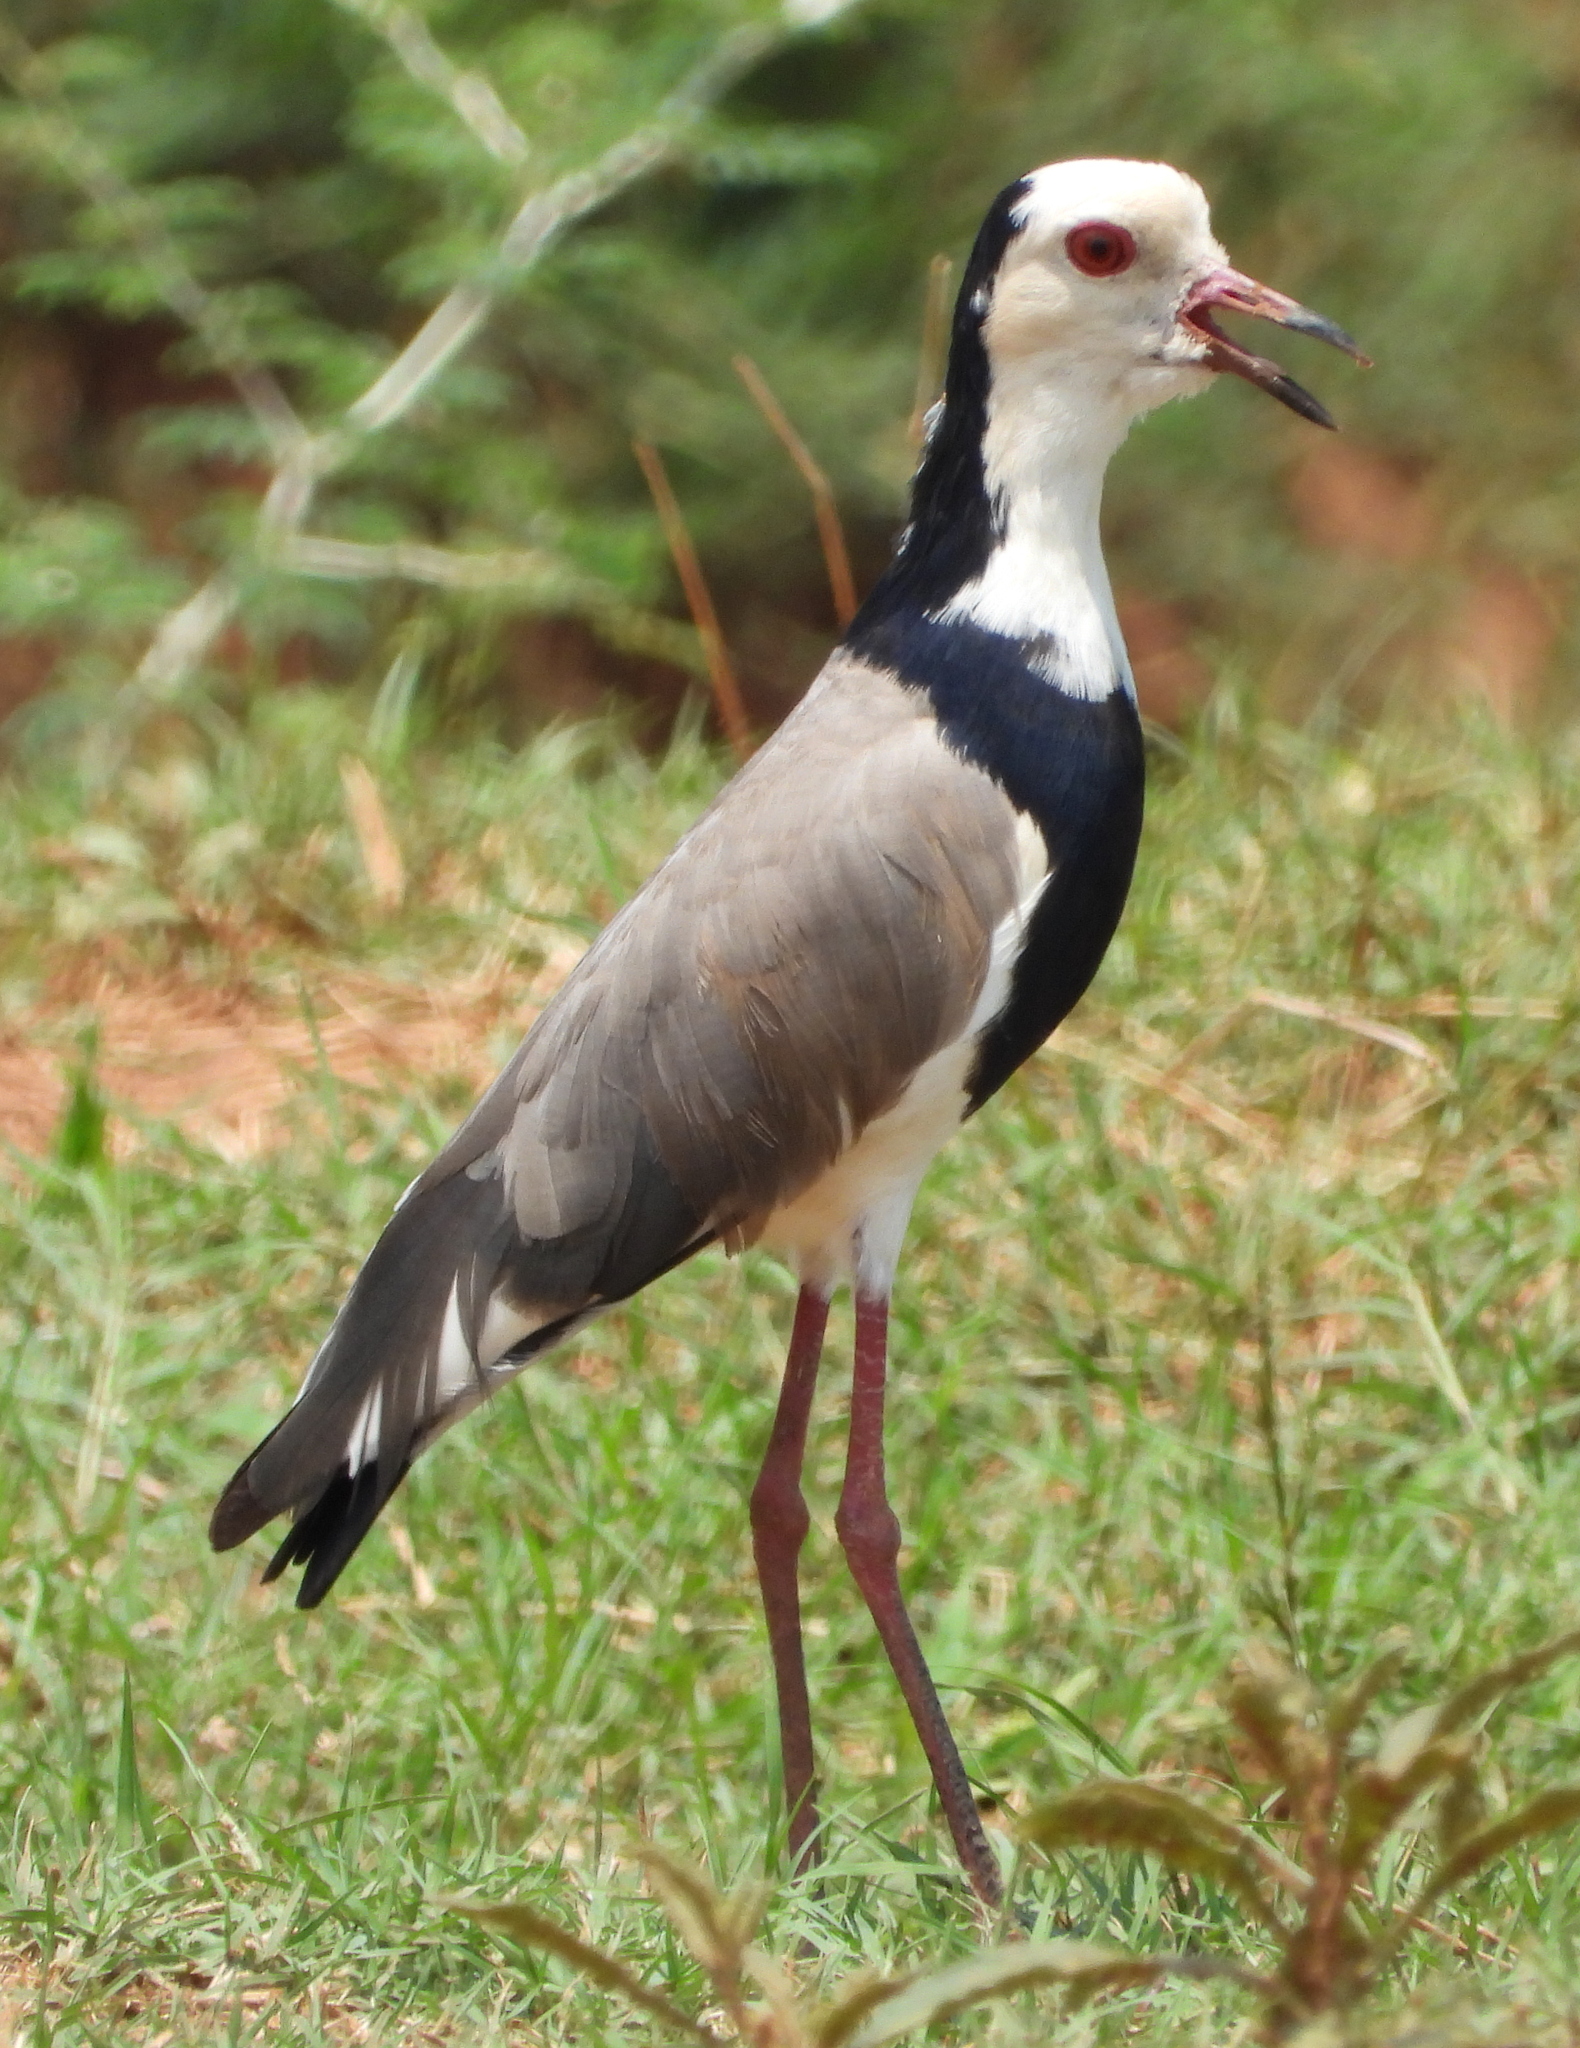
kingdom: Animalia
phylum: Chordata
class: Aves
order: Charadriiformes
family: Charadriidae
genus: Vanellus
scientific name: Vanellus crassirostris
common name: Long-toed lapwing
